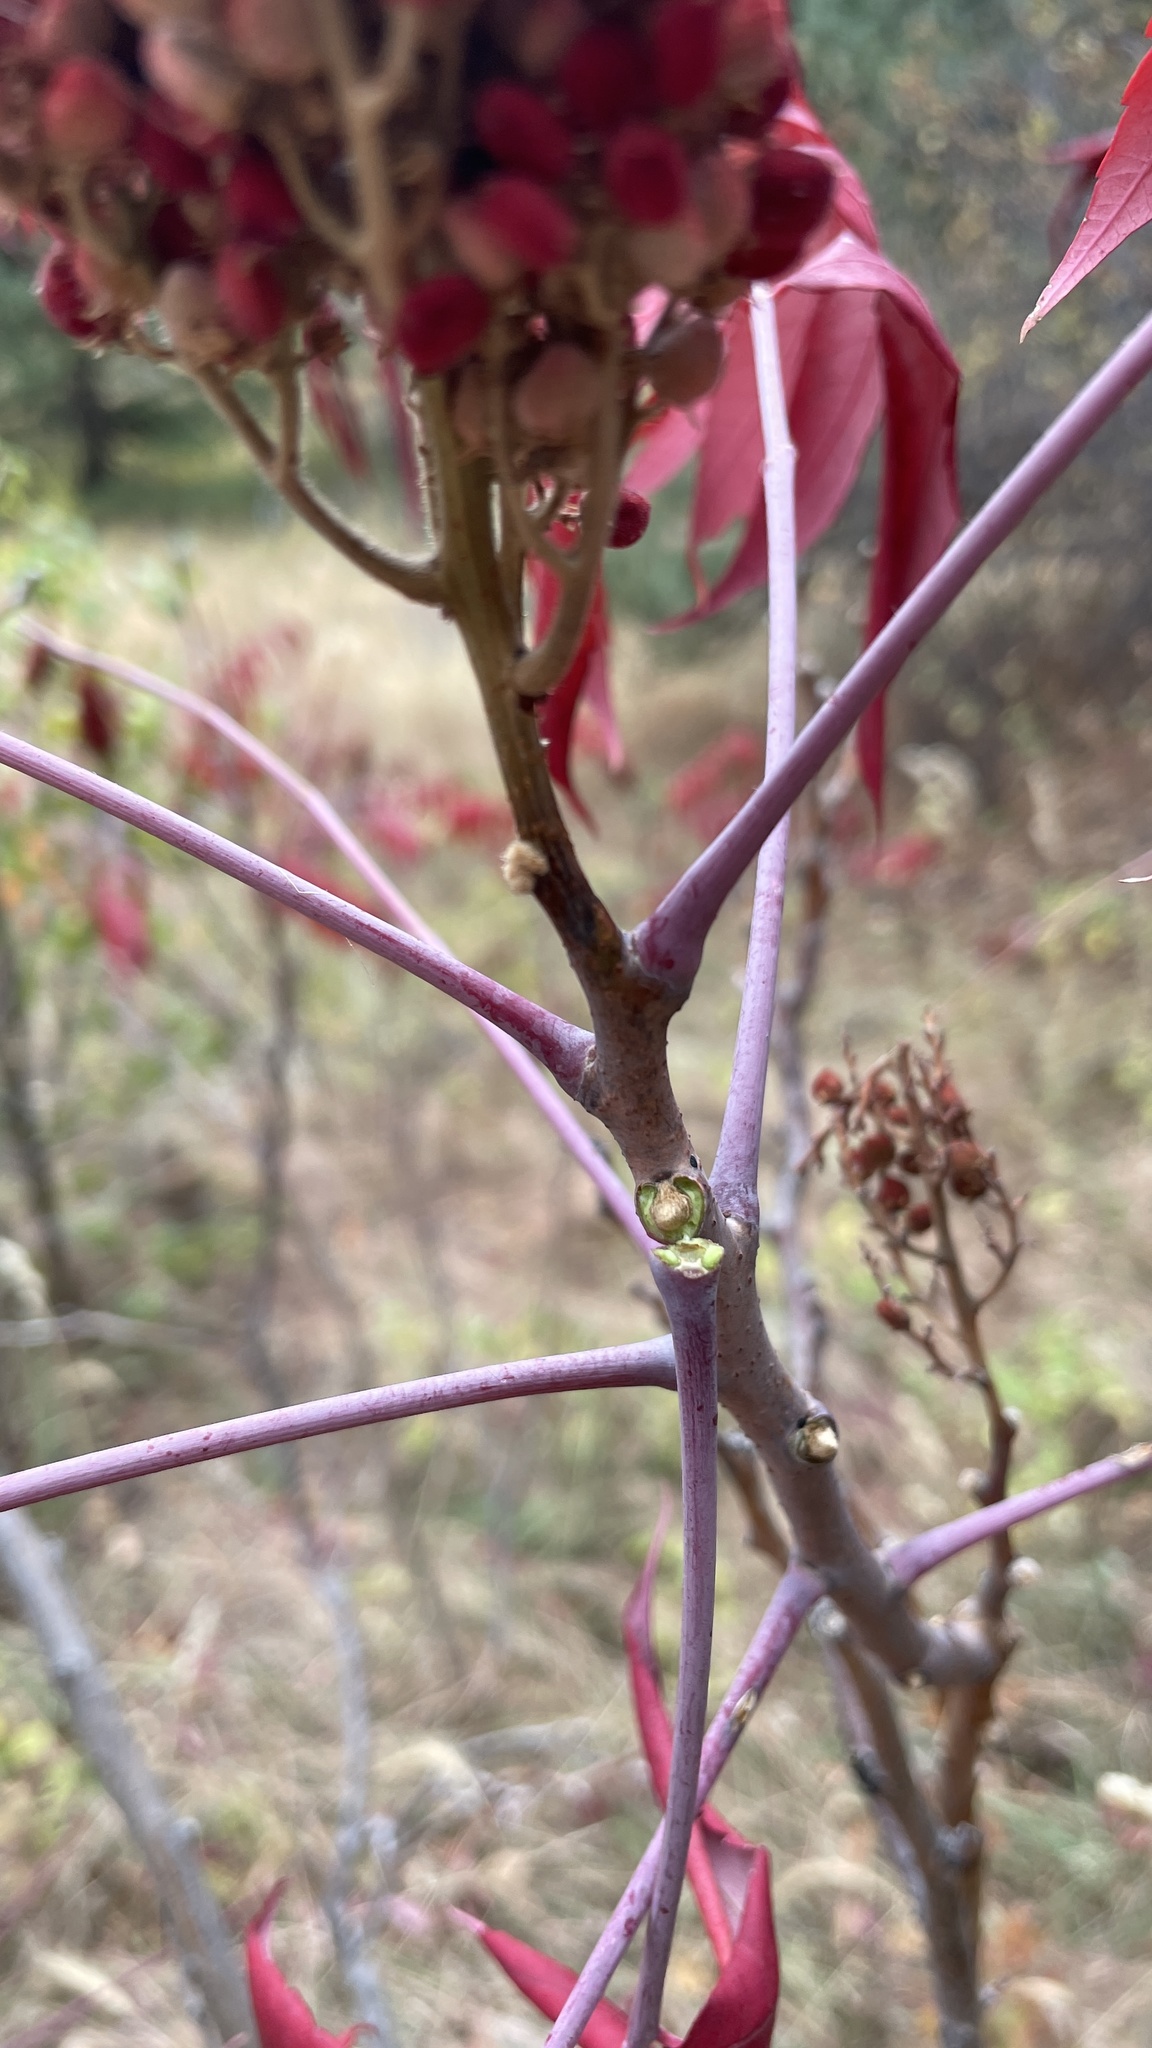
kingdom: Plantae
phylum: Tracheophyta
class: Magnoliopsida
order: Sapindales
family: Anacardiaceae
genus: Rhus
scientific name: Rhus glabra
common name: Scarlet sumac
